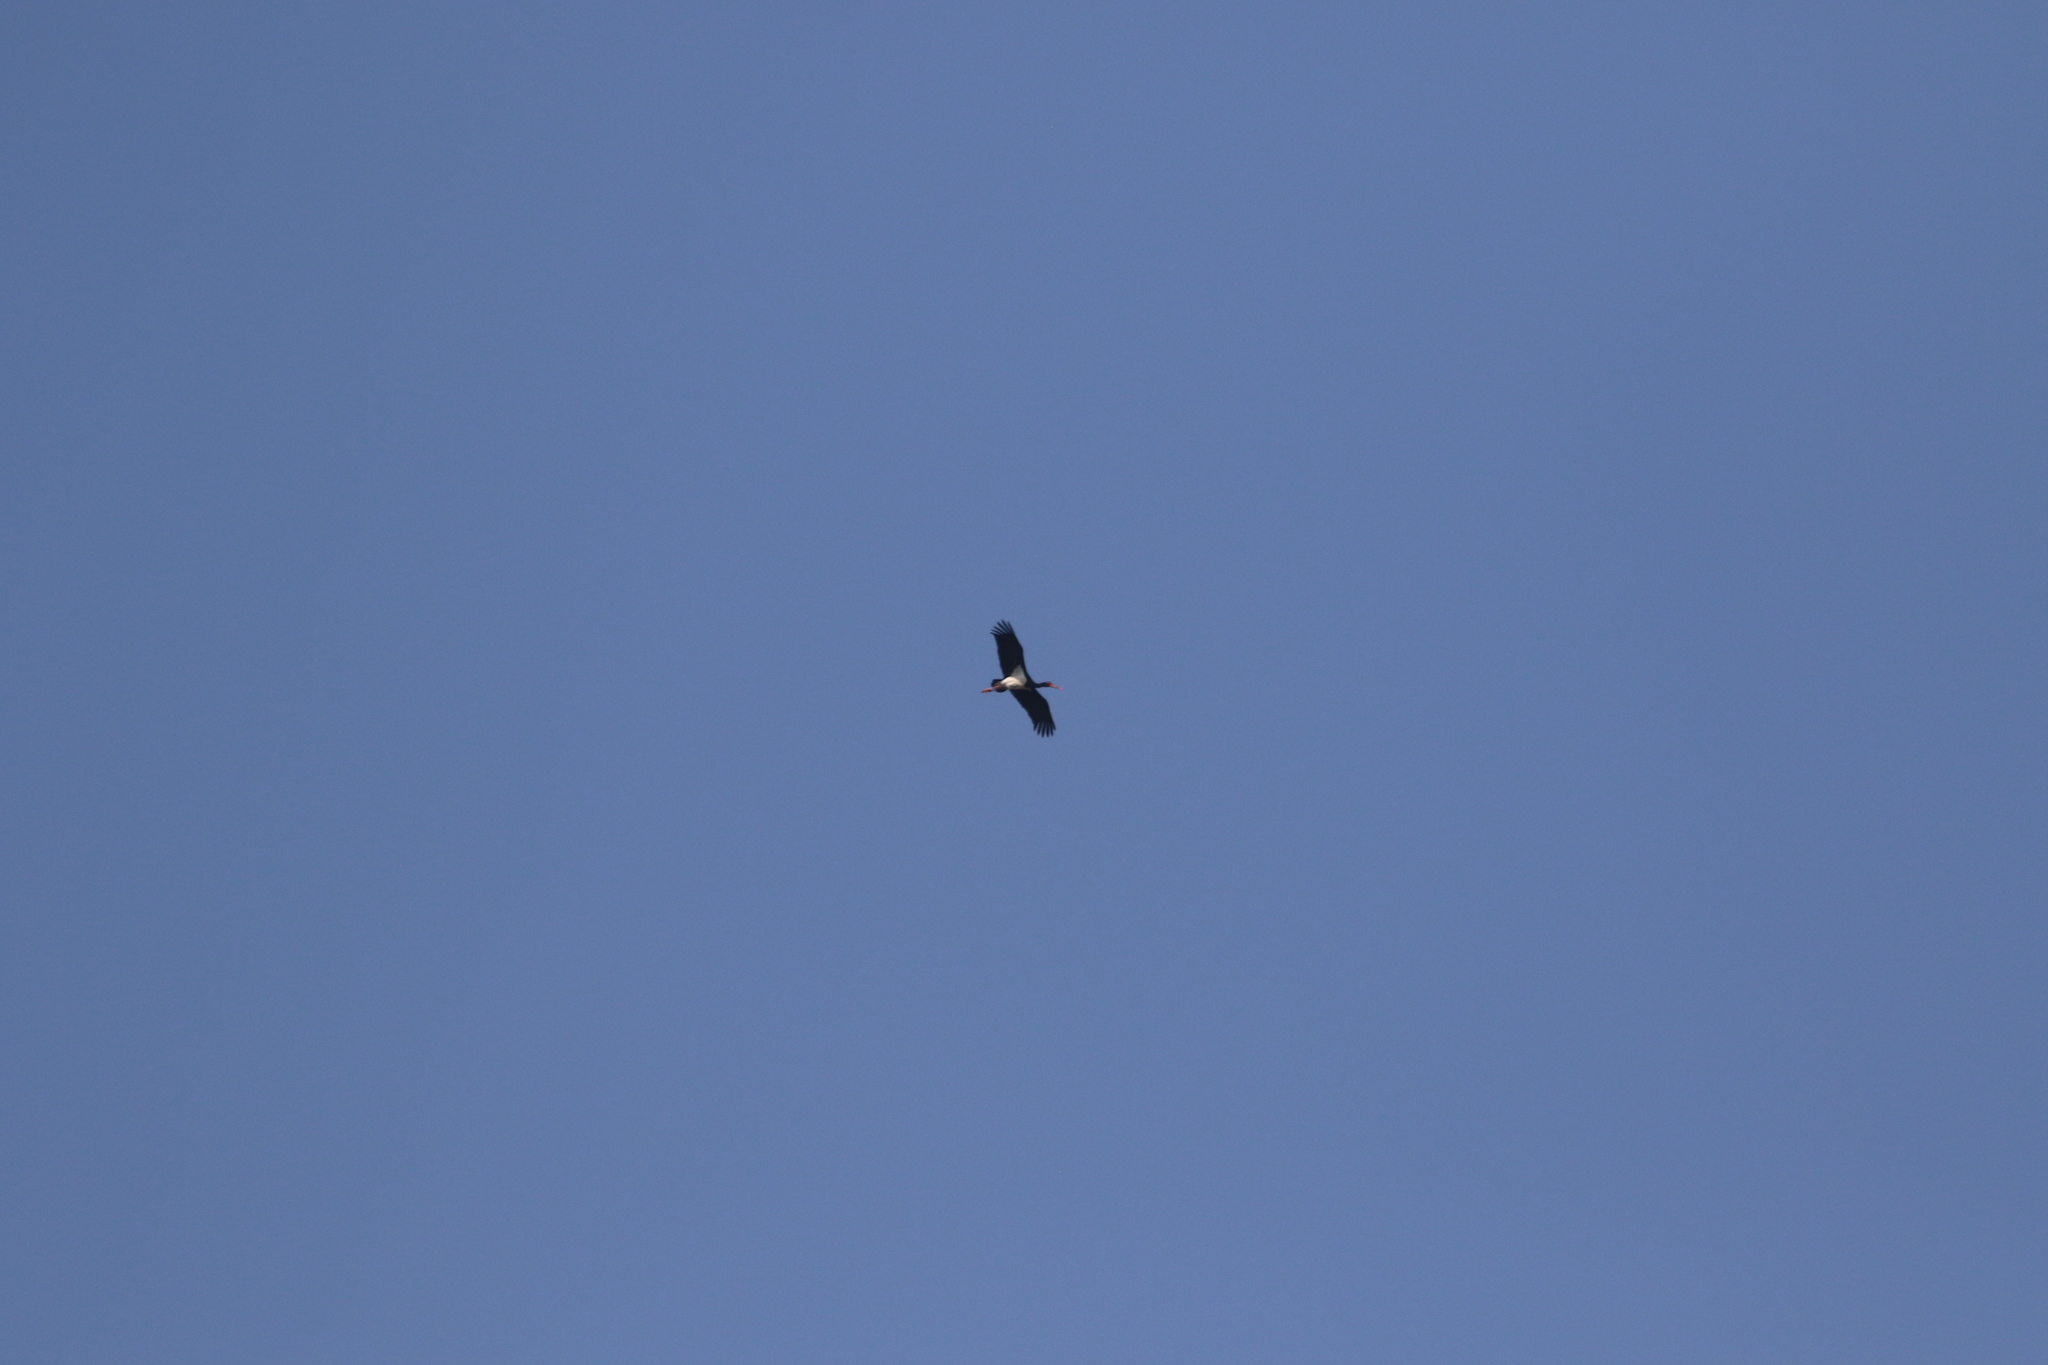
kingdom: Animalia
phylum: Chordata
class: Aves
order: Ciconiiformes
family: Ciconiidae
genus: Ciconia
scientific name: Ciconia nigra
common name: Black stork
